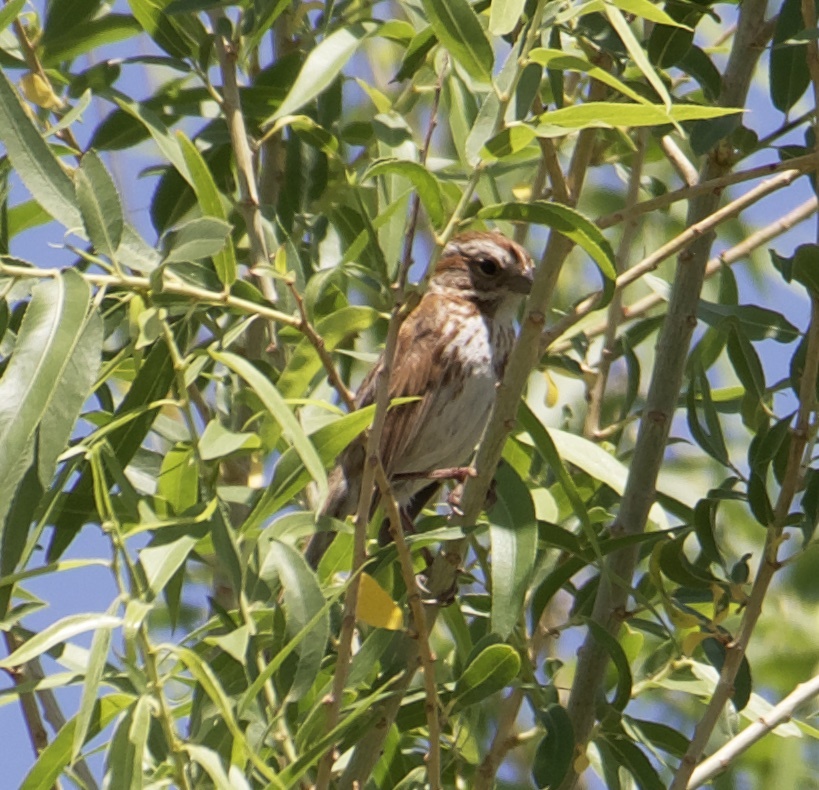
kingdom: Animalia
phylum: Chordata
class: Aves
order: Passeriformes
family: Passerellidae
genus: Melospiza
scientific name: Melospiza melodia
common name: Song sparrow
